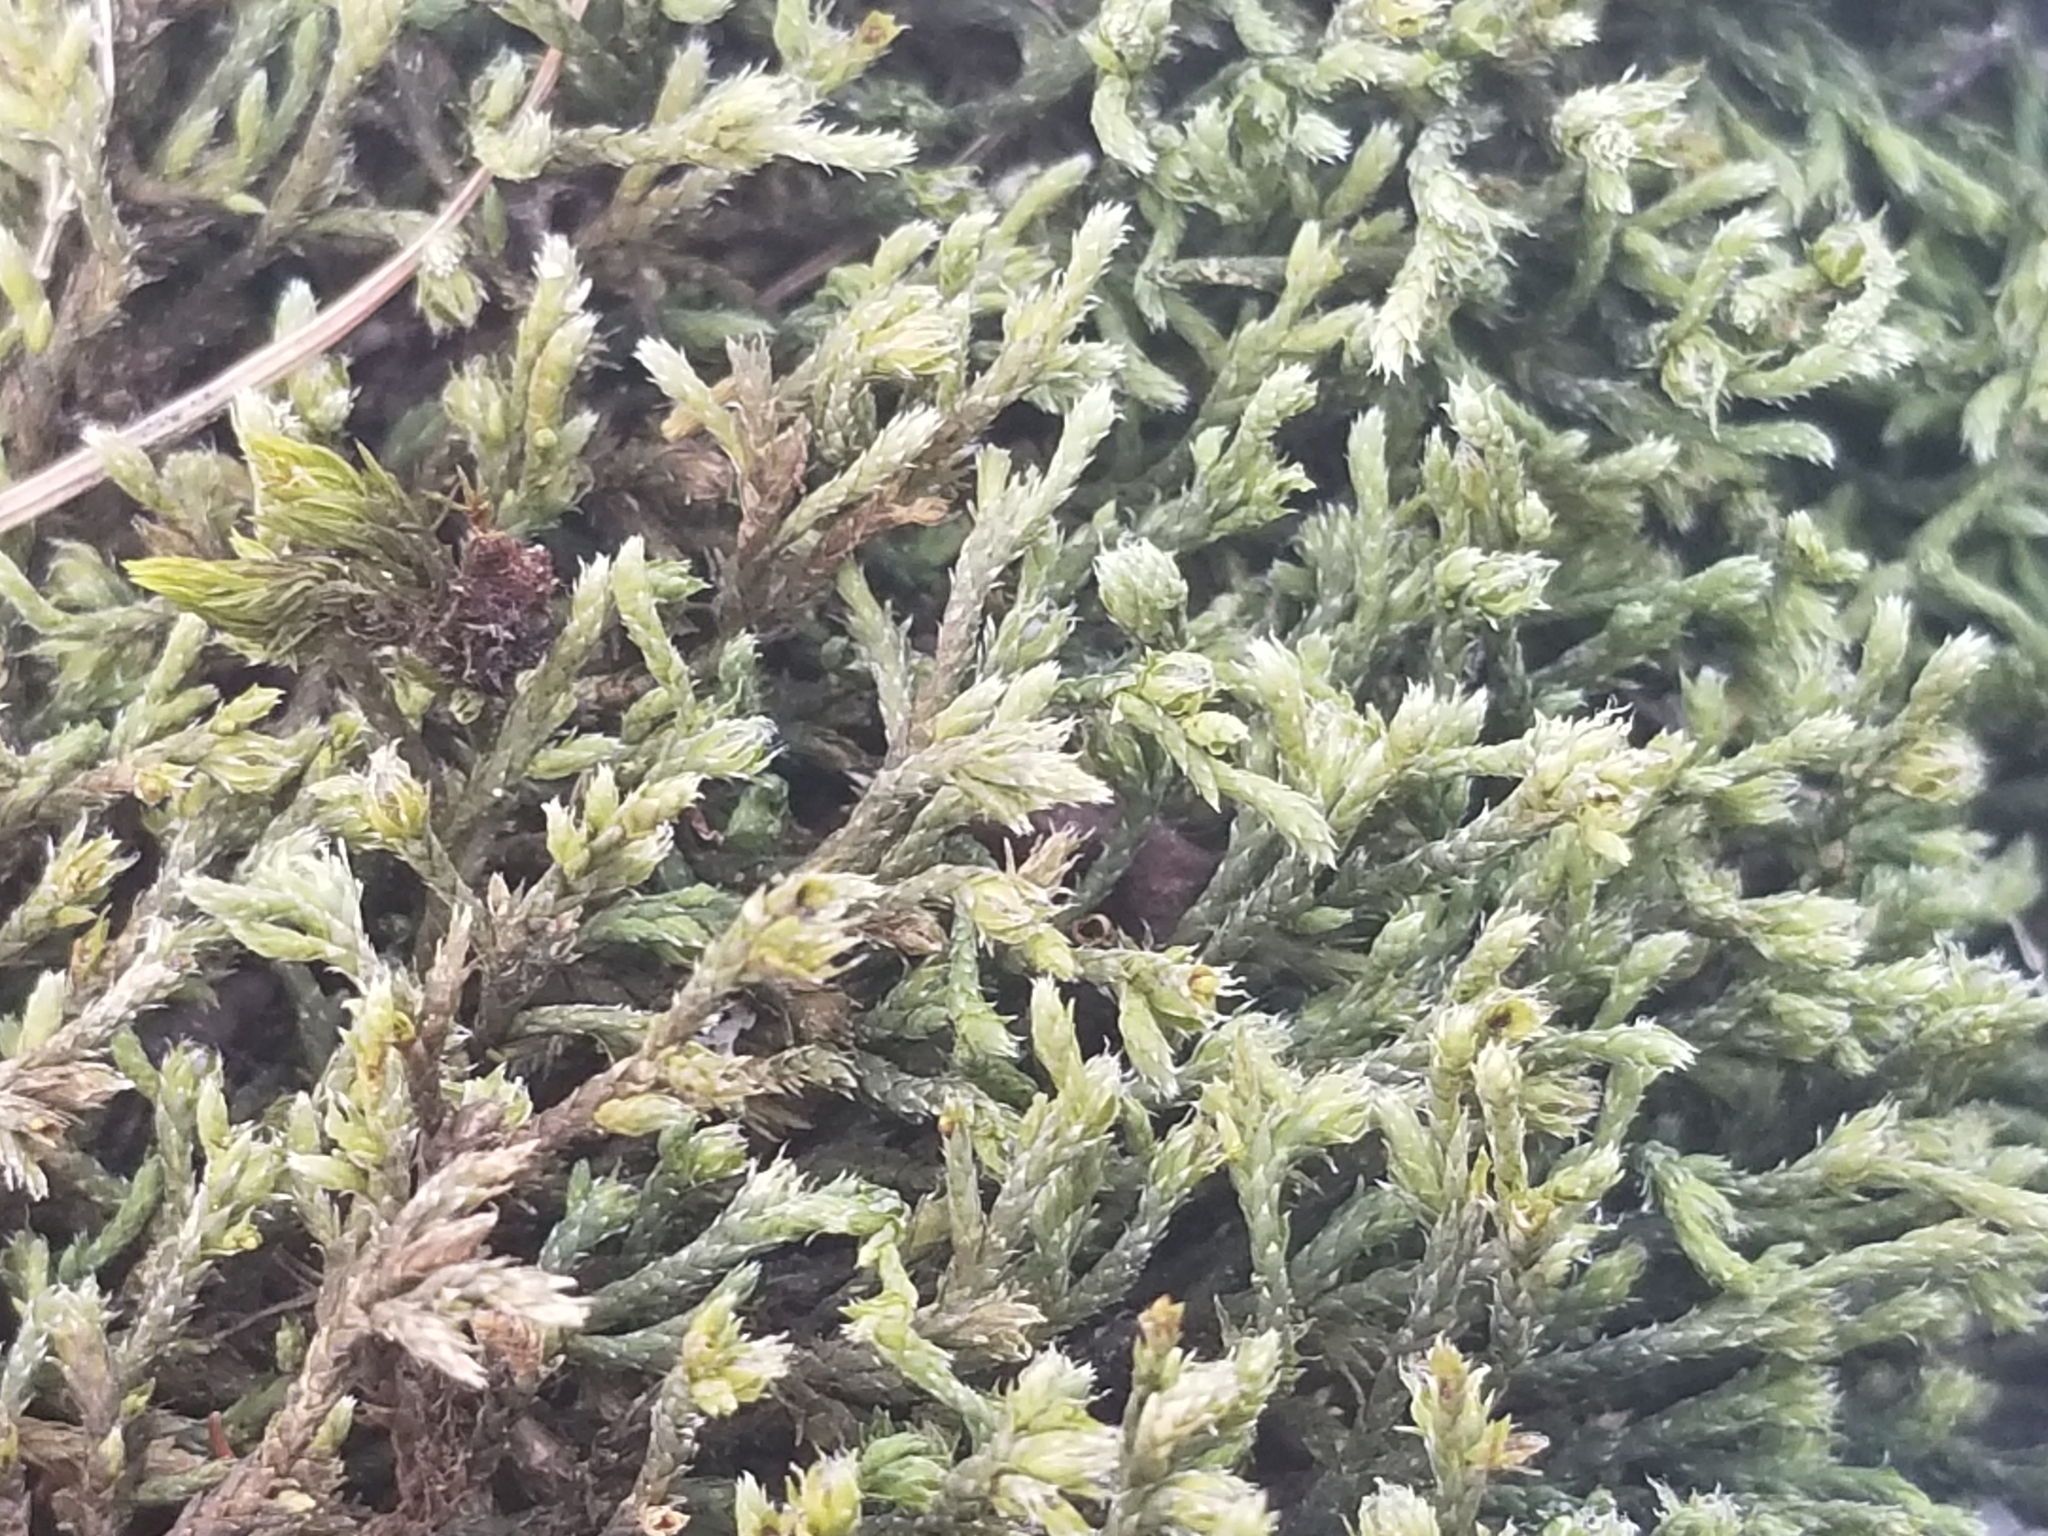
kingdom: Plantae
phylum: Bryophyta
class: Bryopsida
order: Hedwigiales
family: Hedwigiaceae
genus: Hedwigia
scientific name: Hedwigia ciliata
